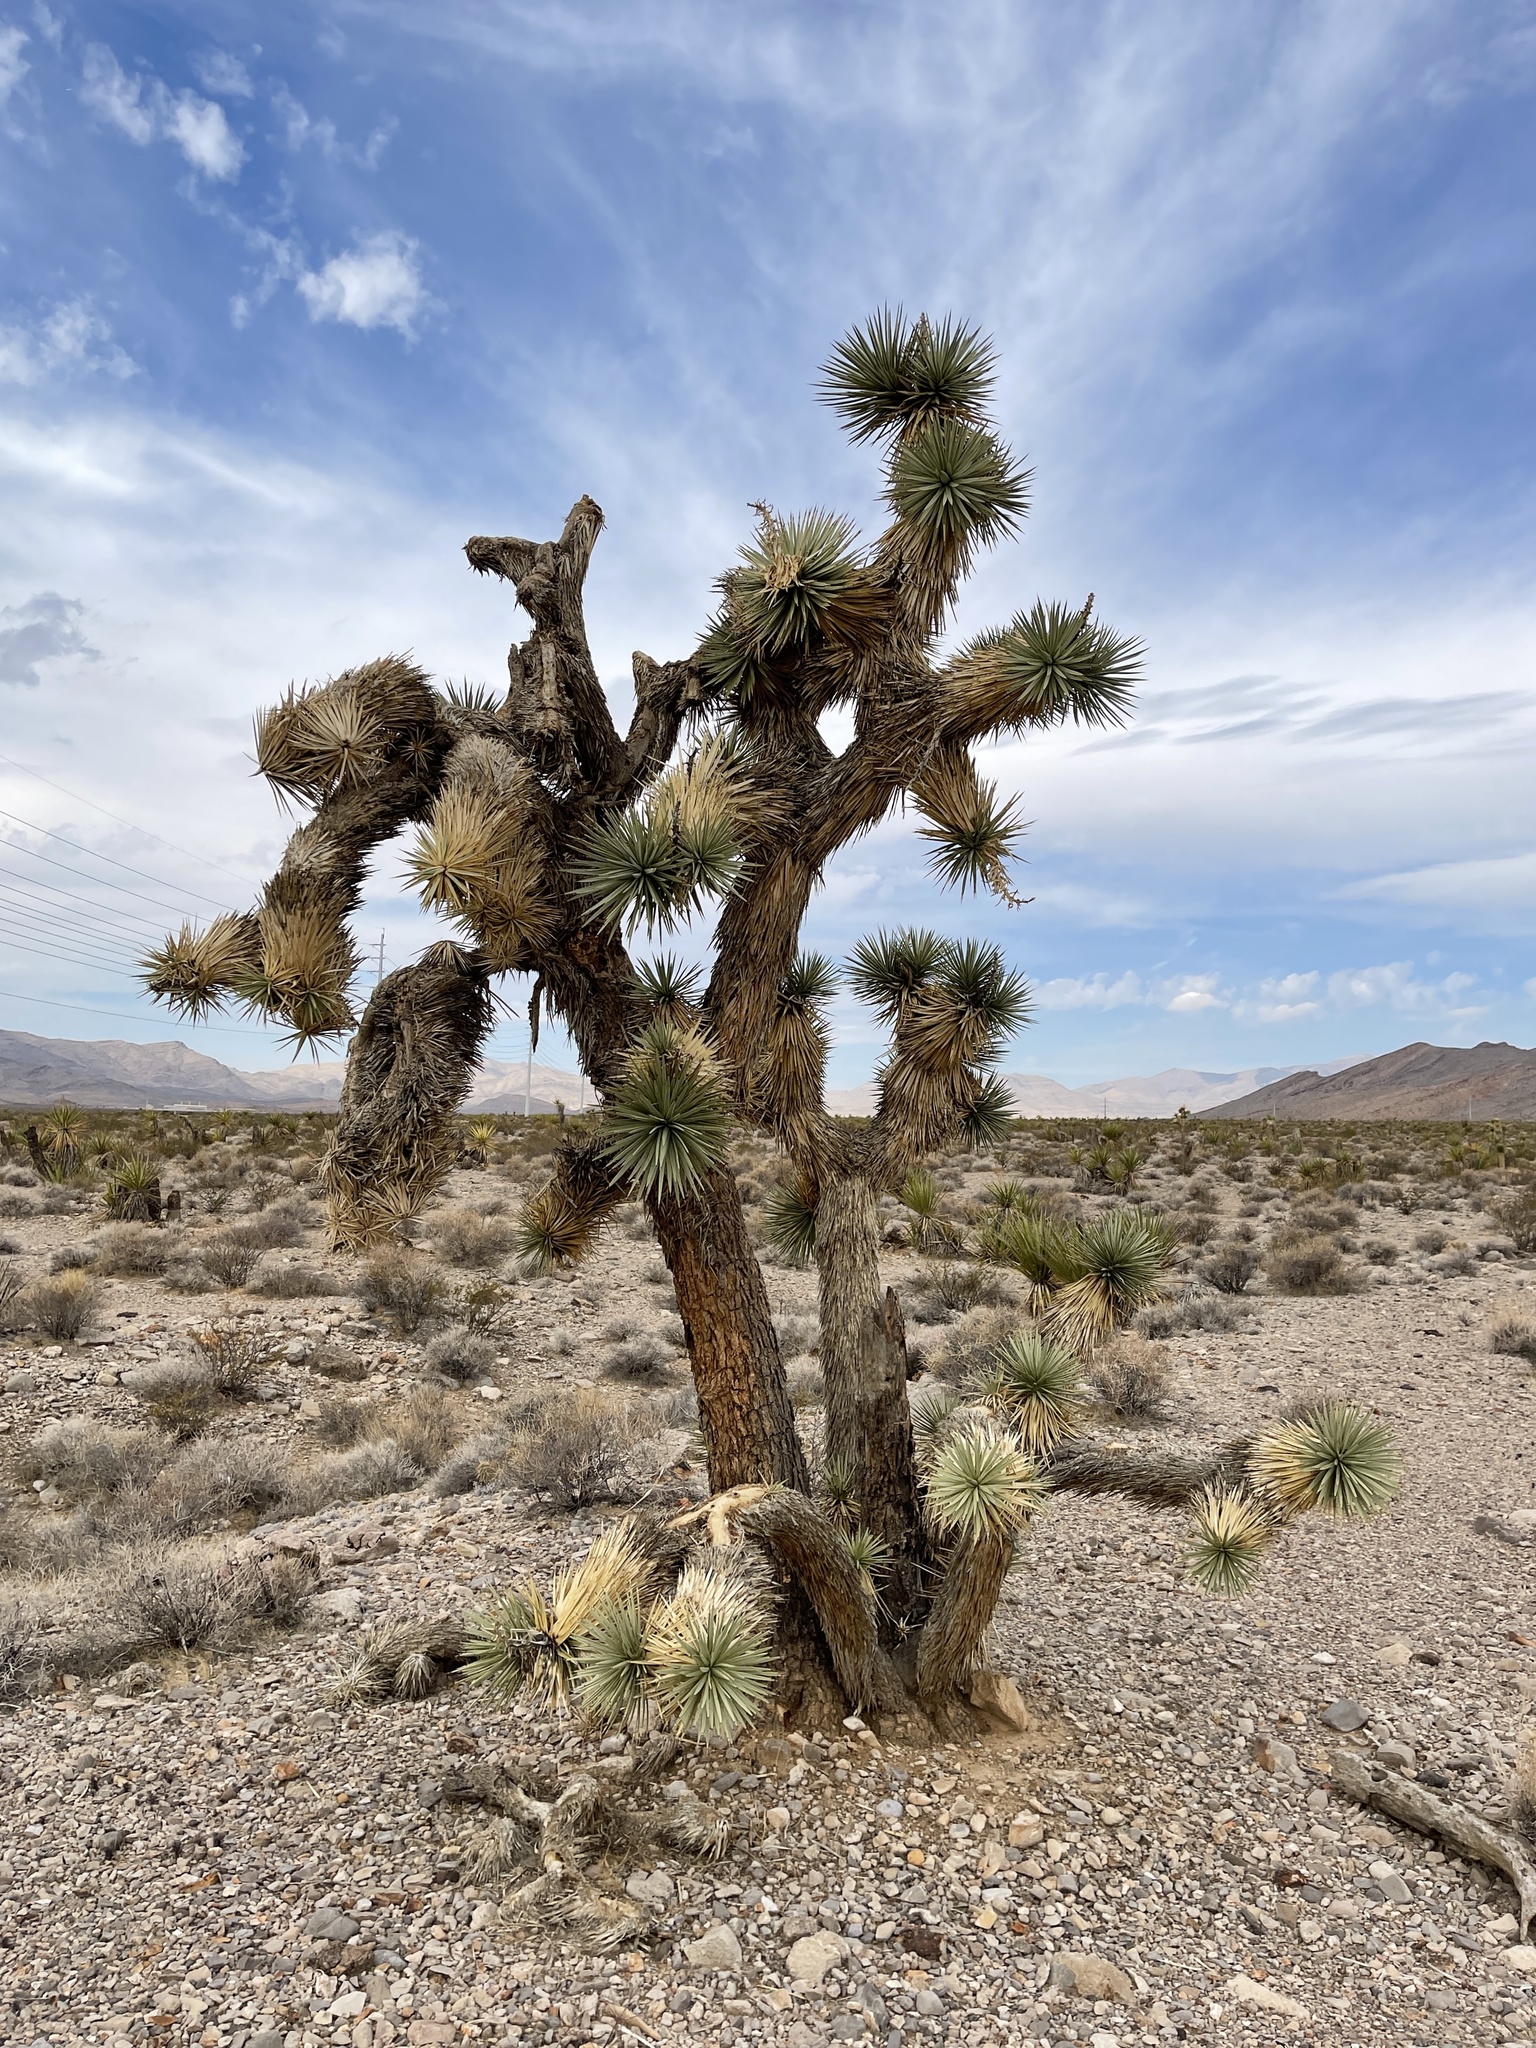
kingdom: Plantae
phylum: Tracheophyta
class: Liliopsida
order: Asparagales
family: Asparagaceae
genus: Yucca
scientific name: Yucca brevifolia
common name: Joshua tree
